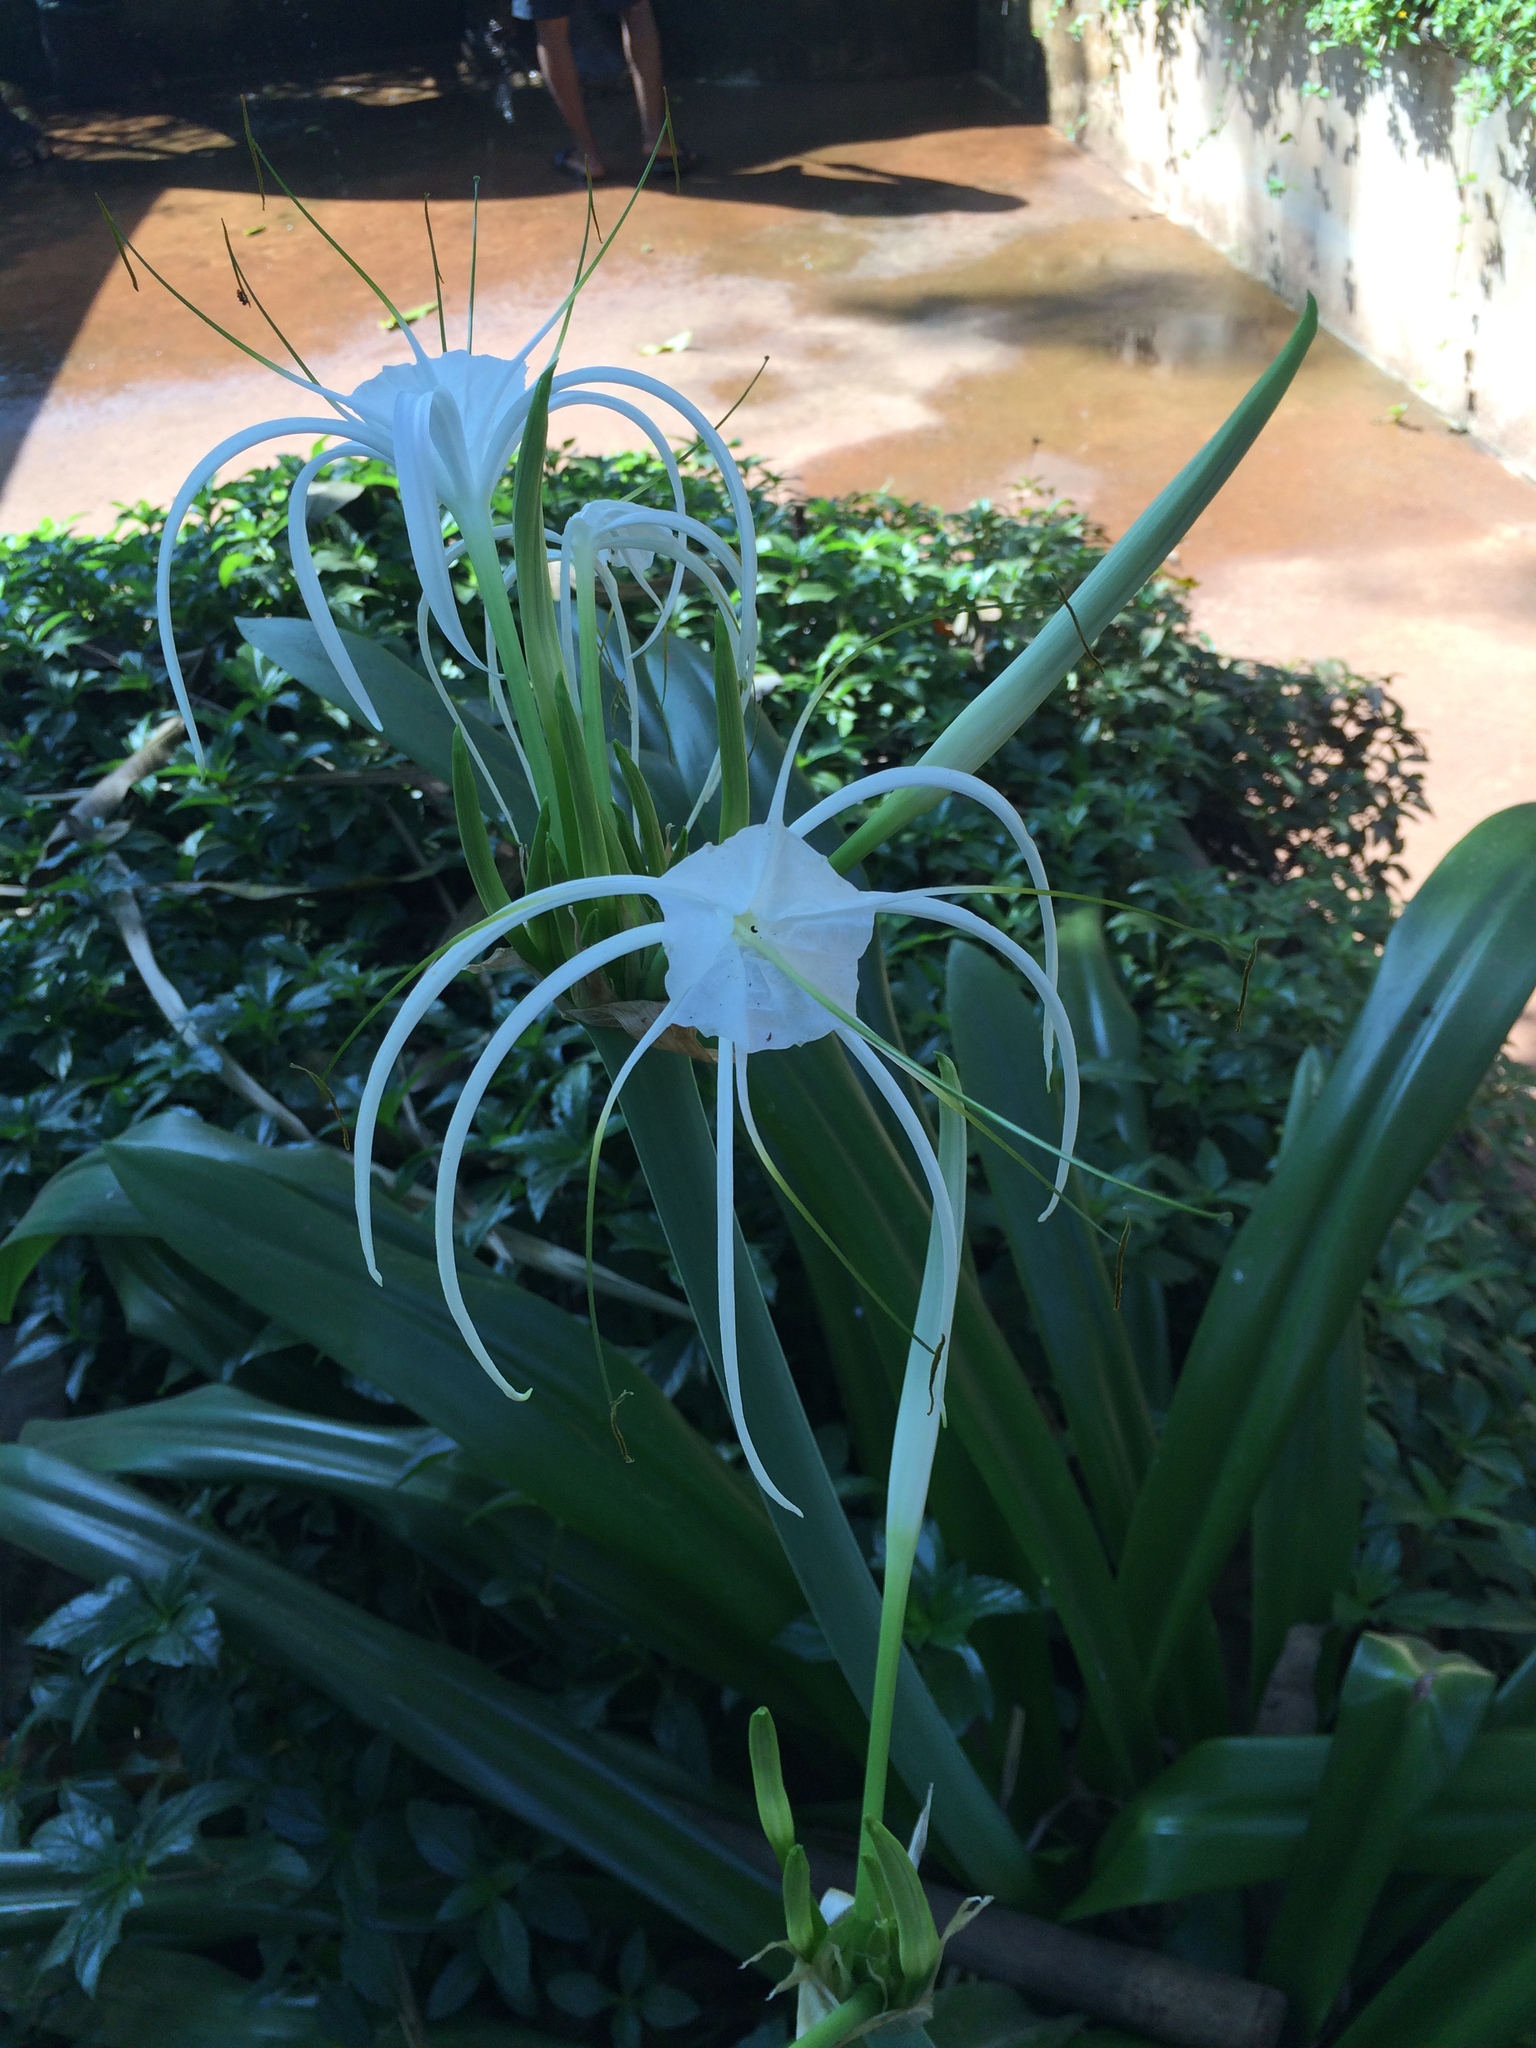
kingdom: Plantae
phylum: Tracheophyta
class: Liliopsida
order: Asparagales
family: Amaryllidaceae
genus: Hymenocallis
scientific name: Hymenocallis littoralis
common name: Beach spiderlily
